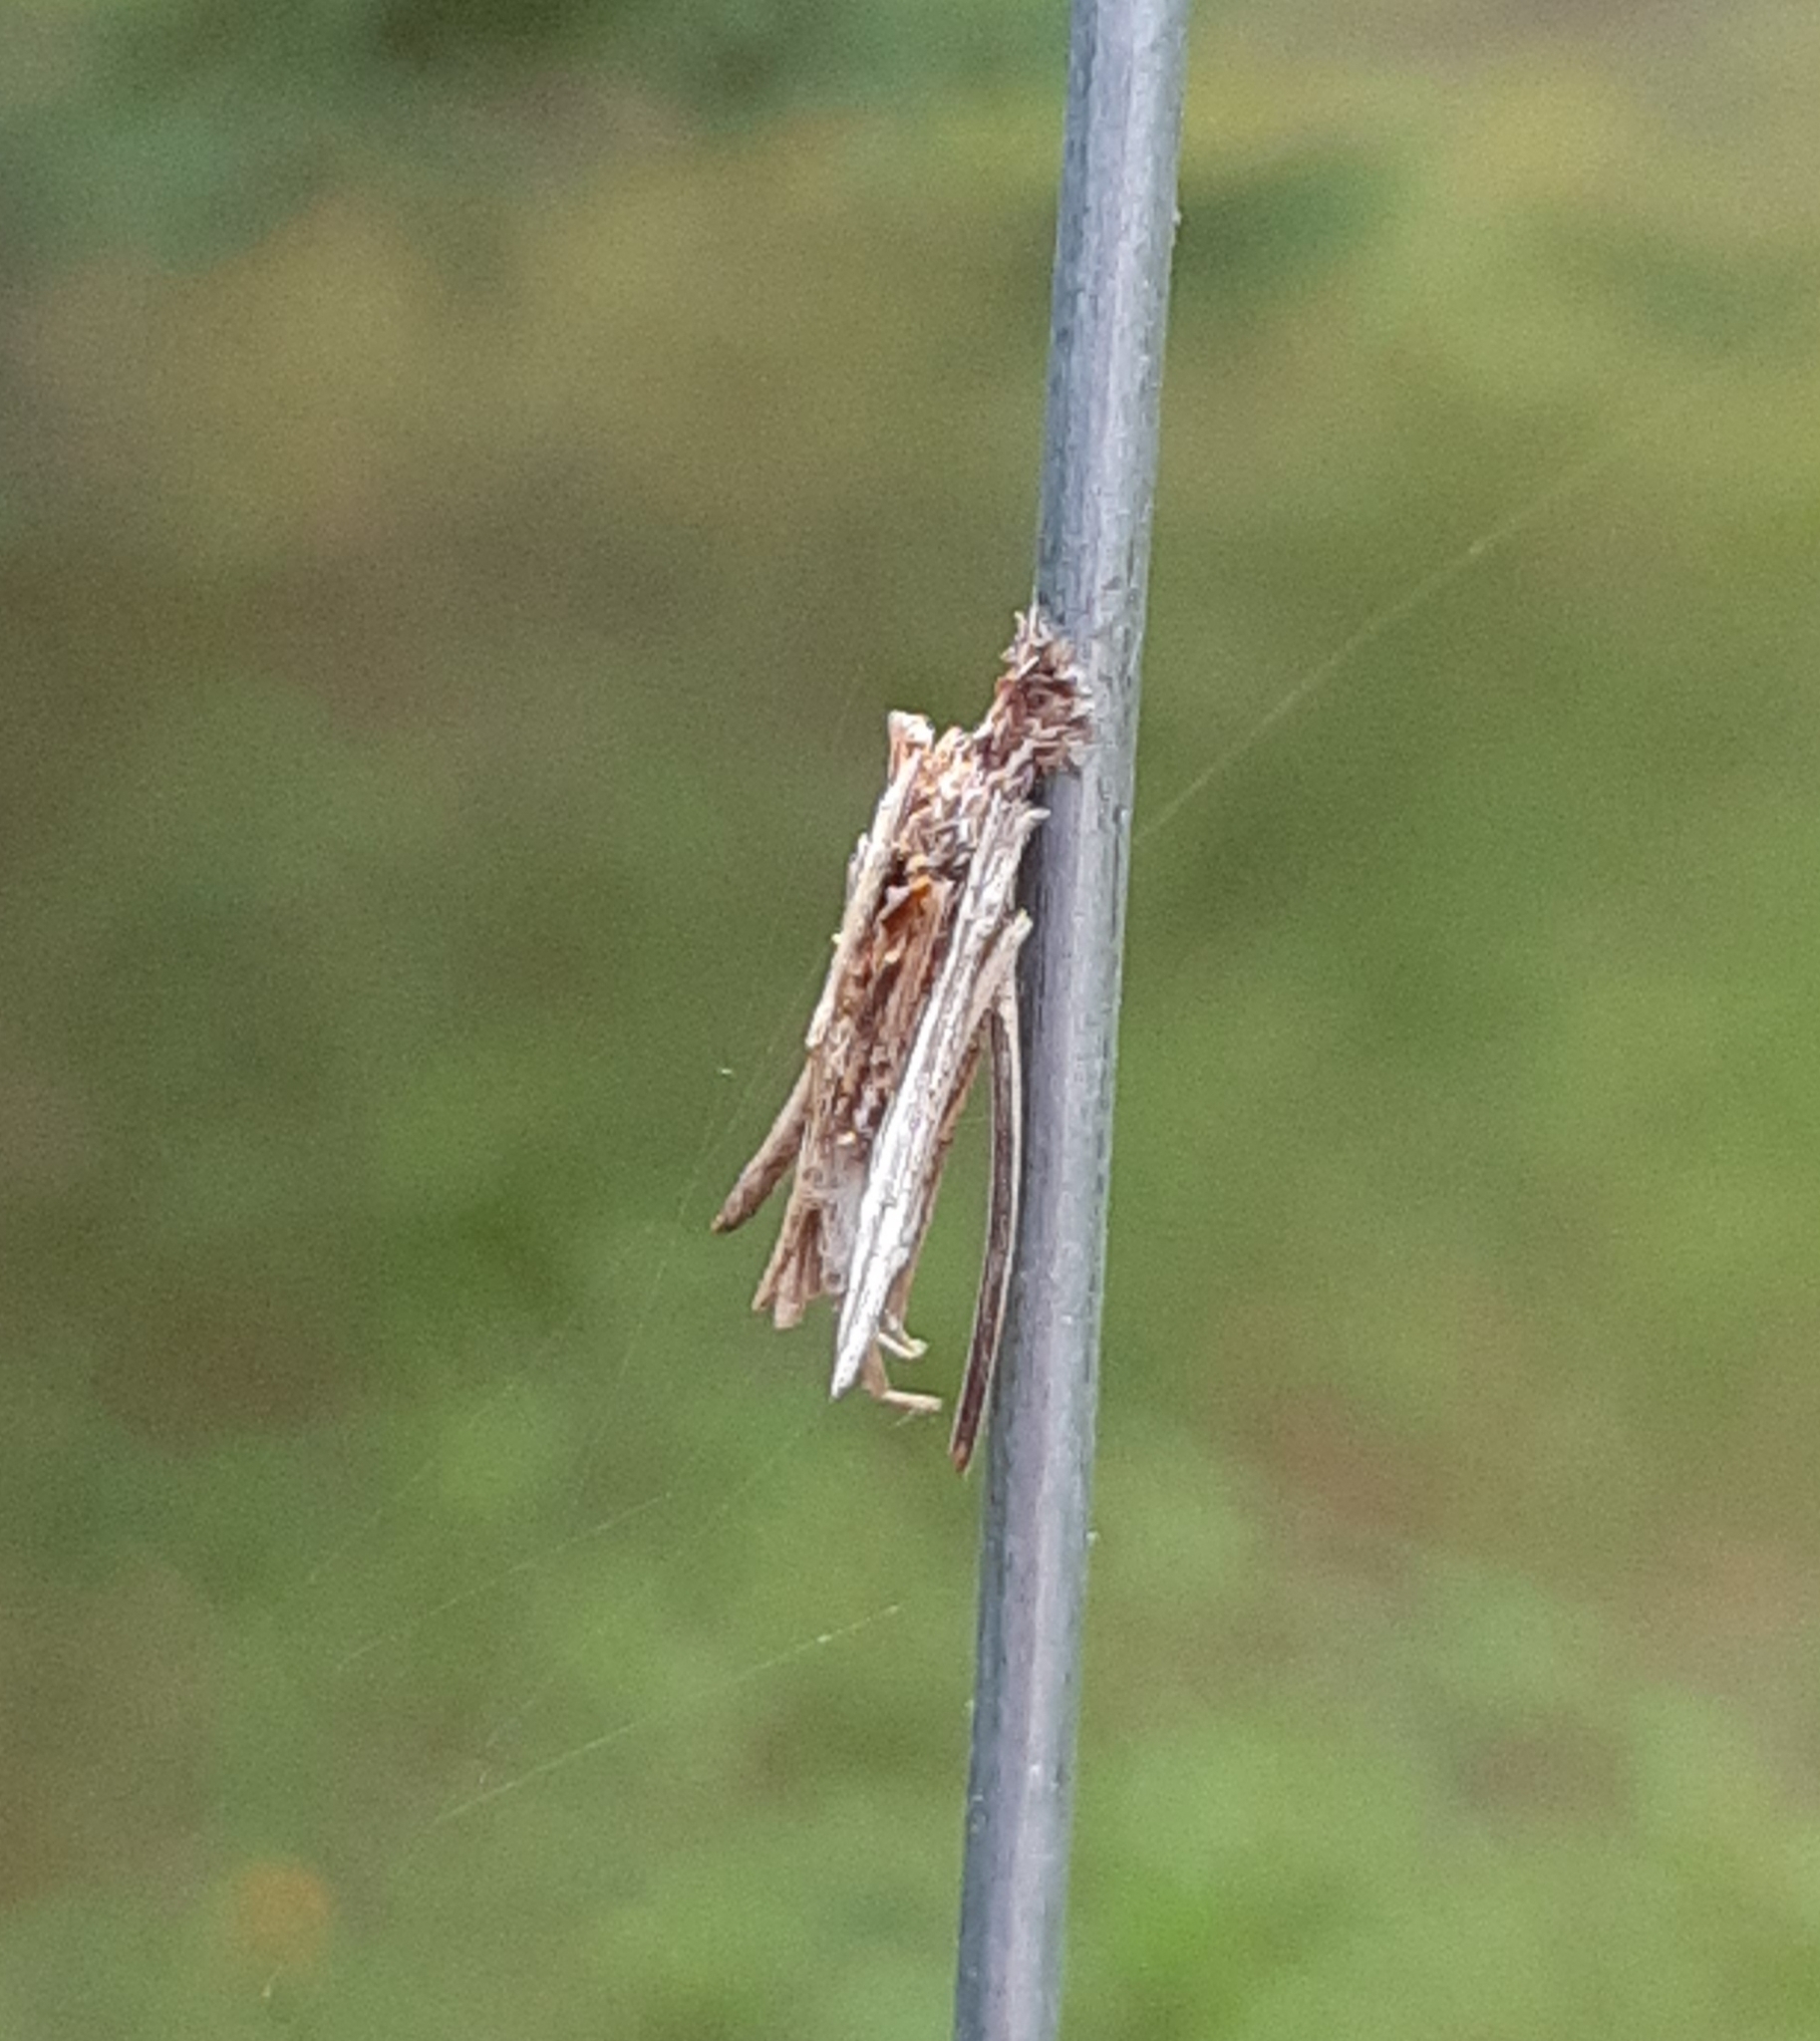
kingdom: Animalia
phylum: Arthropoda
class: Insecta
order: Lepidoptera
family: Psychidae
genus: Psyche
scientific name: Psyche casta
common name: Common sweep
